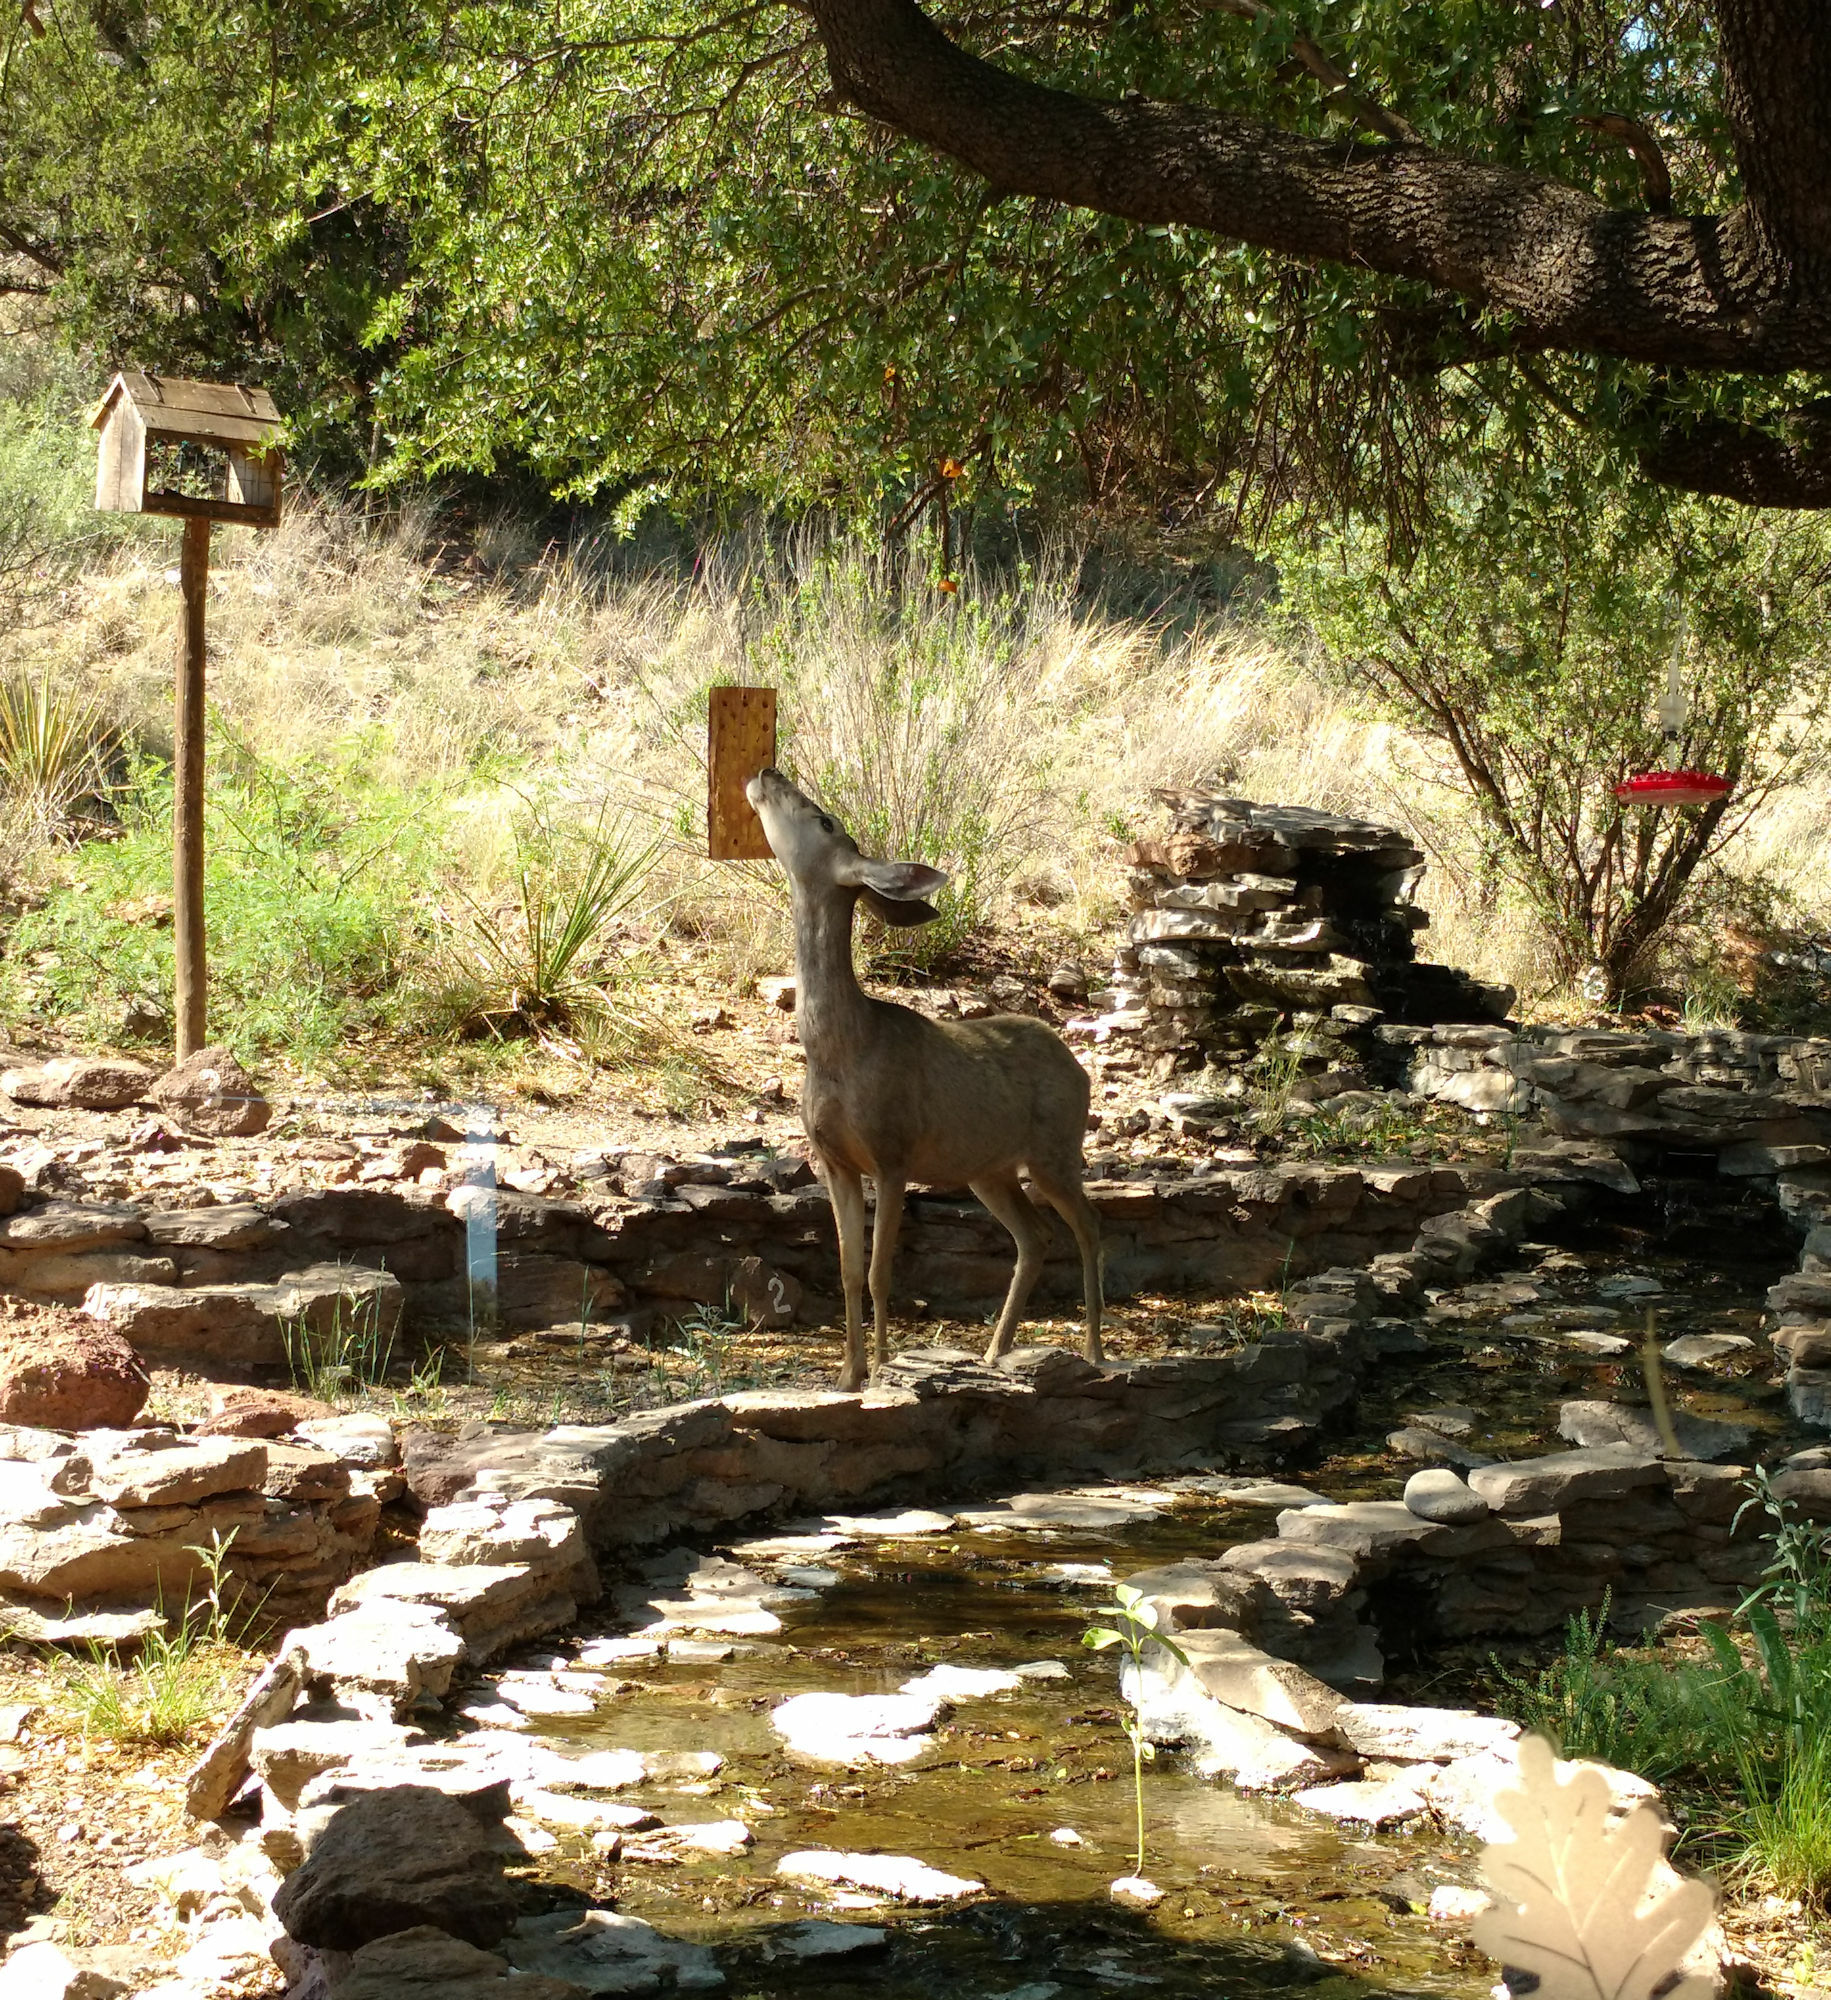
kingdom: Animalia
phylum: Chordata
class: Mammalia
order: Artiodactyla
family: Cervidae
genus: Odocoileus
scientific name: Odocoileus hemionus
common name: Mule deer
